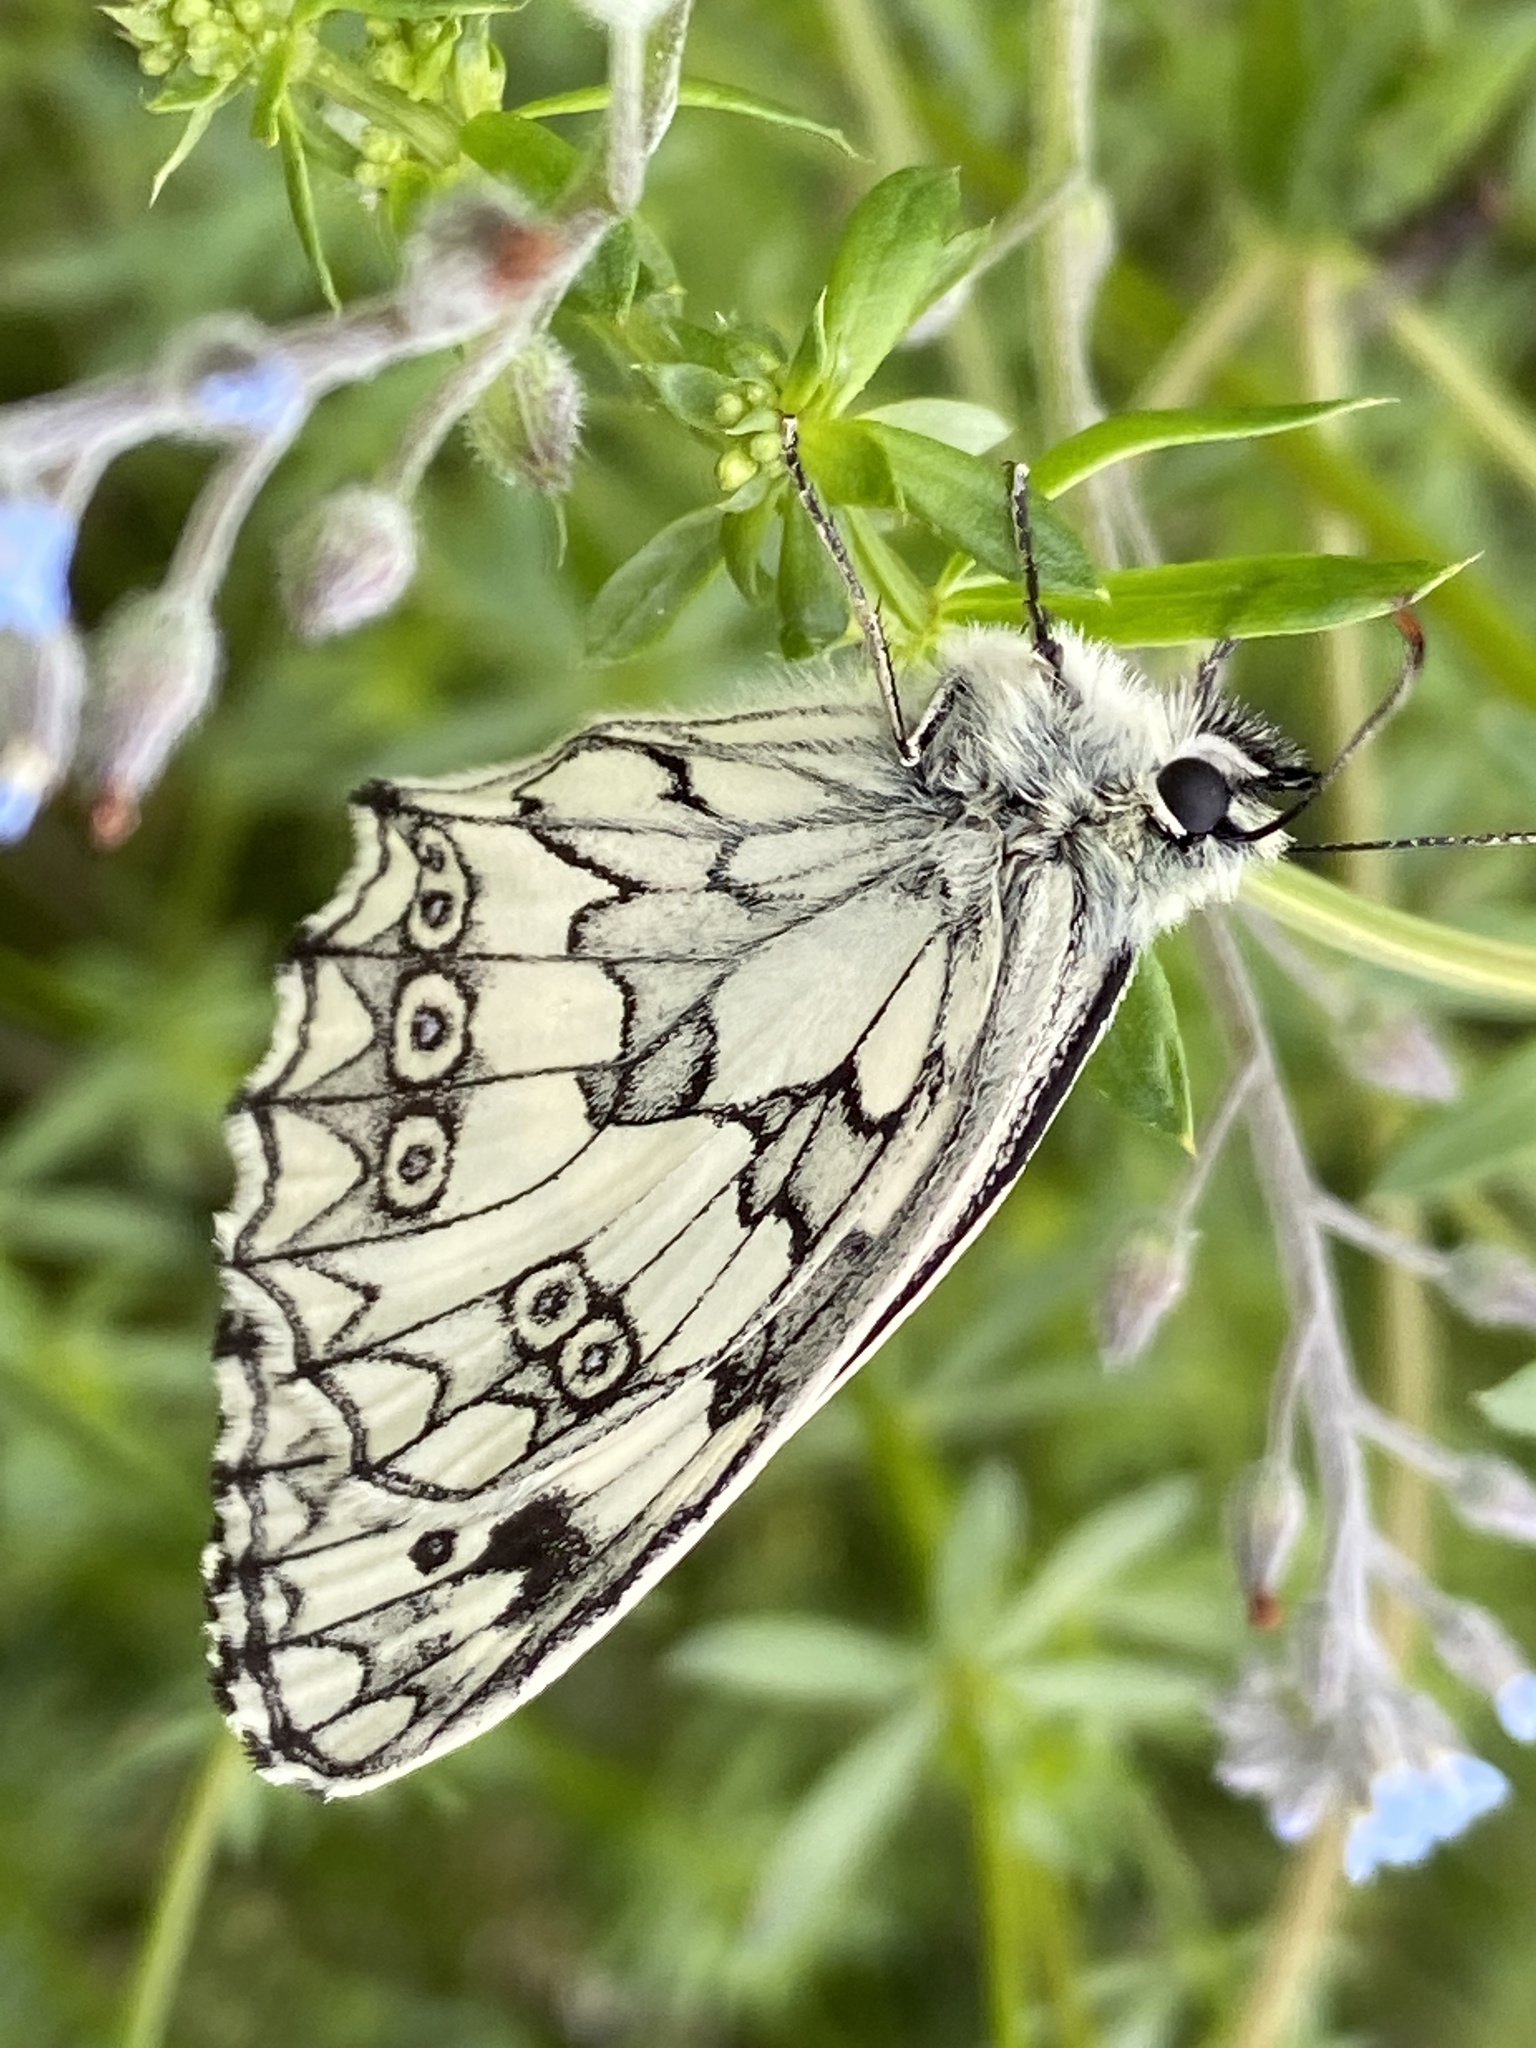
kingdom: Animalia
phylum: Arthropoda
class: Insecta
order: Lepidoptera
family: Nymphalidae
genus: Melanargia
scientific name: Melanargia galathea
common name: Marbled white
